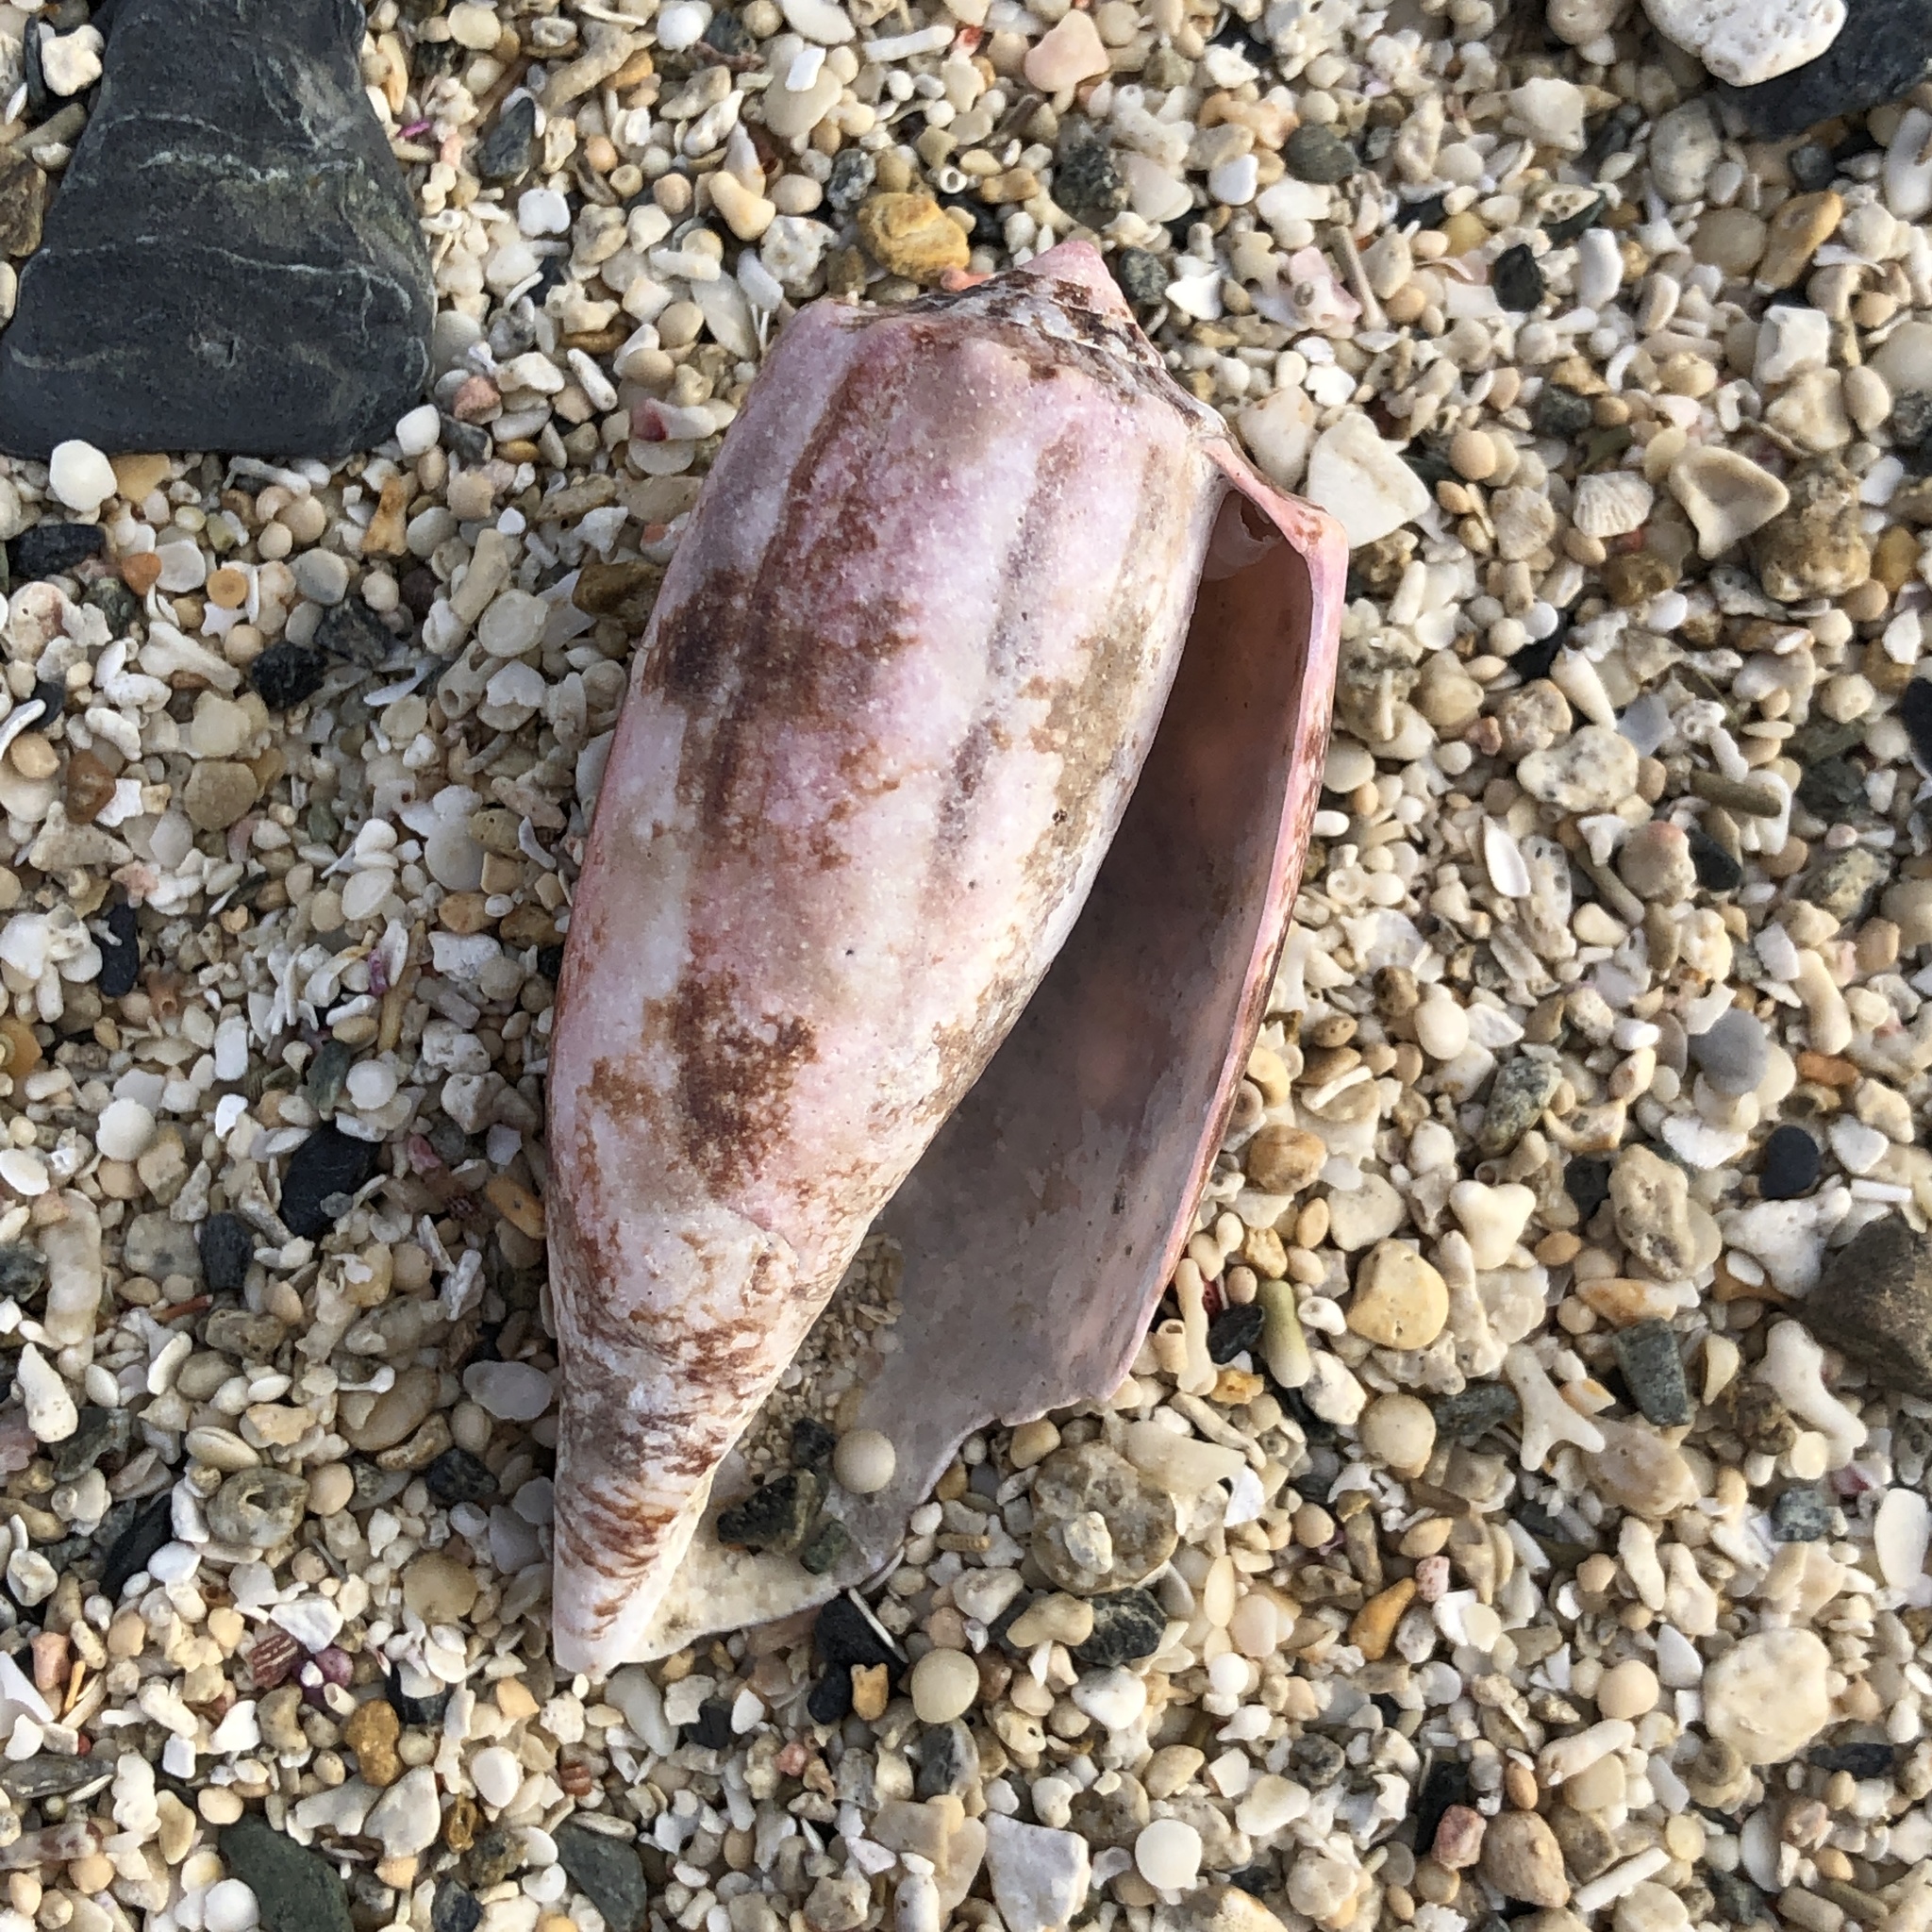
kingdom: Animalia
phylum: Mollusca
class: Gastropoda
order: Neogastropoda
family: Conidae
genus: Conus
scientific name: Conus geographus
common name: Geographer cone
